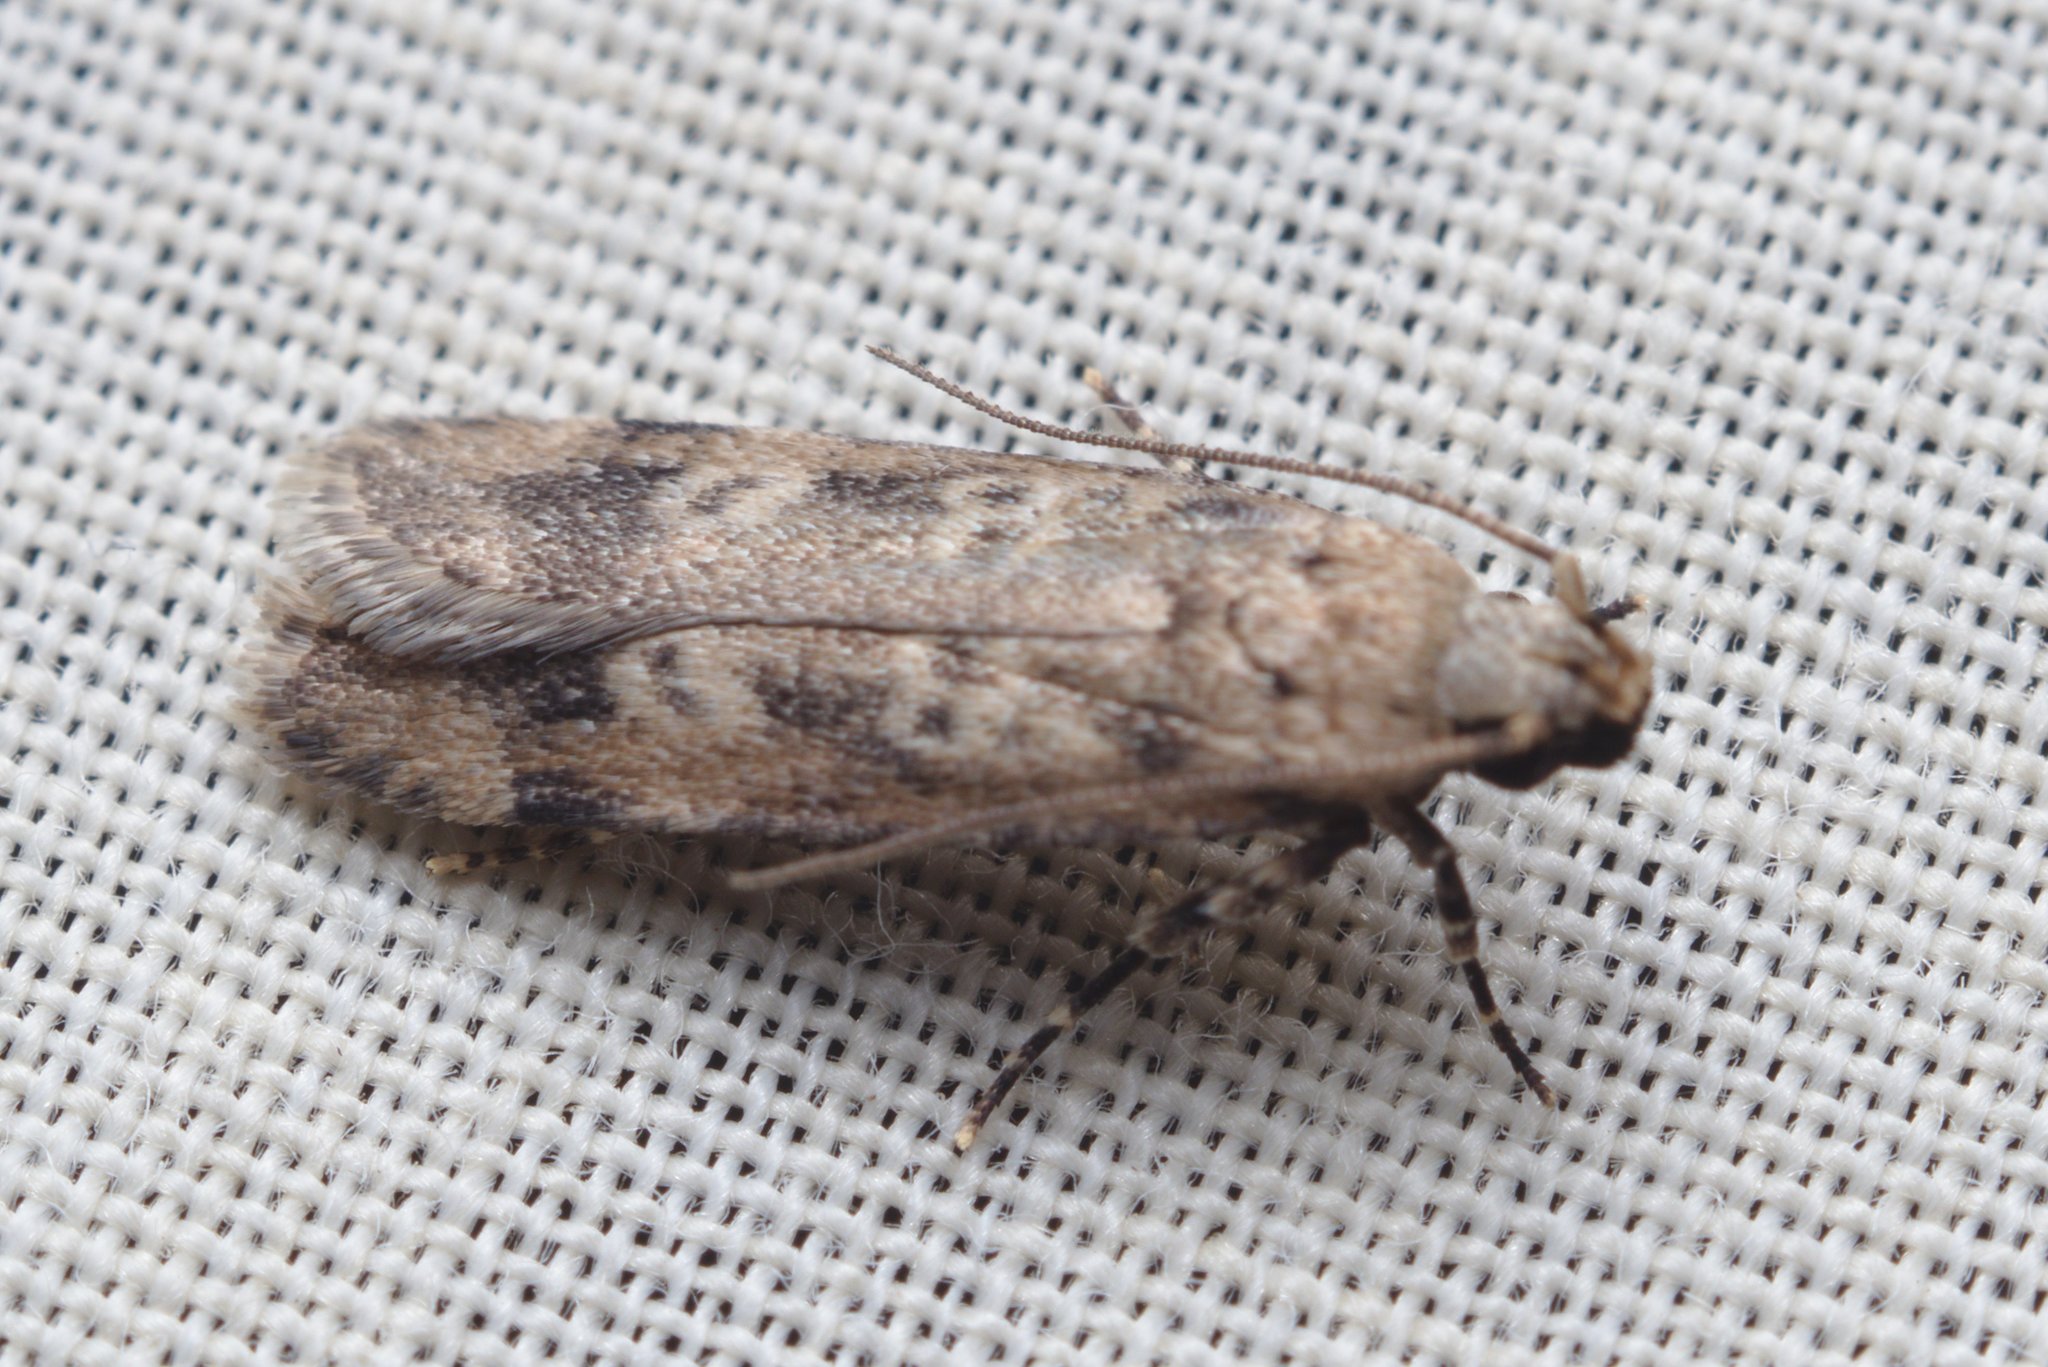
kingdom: Animalia
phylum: Arthropoda
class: Insecta
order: Lepidoptera
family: Gelechiidae
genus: Anisoplaca
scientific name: Anisoplaca cosmia
